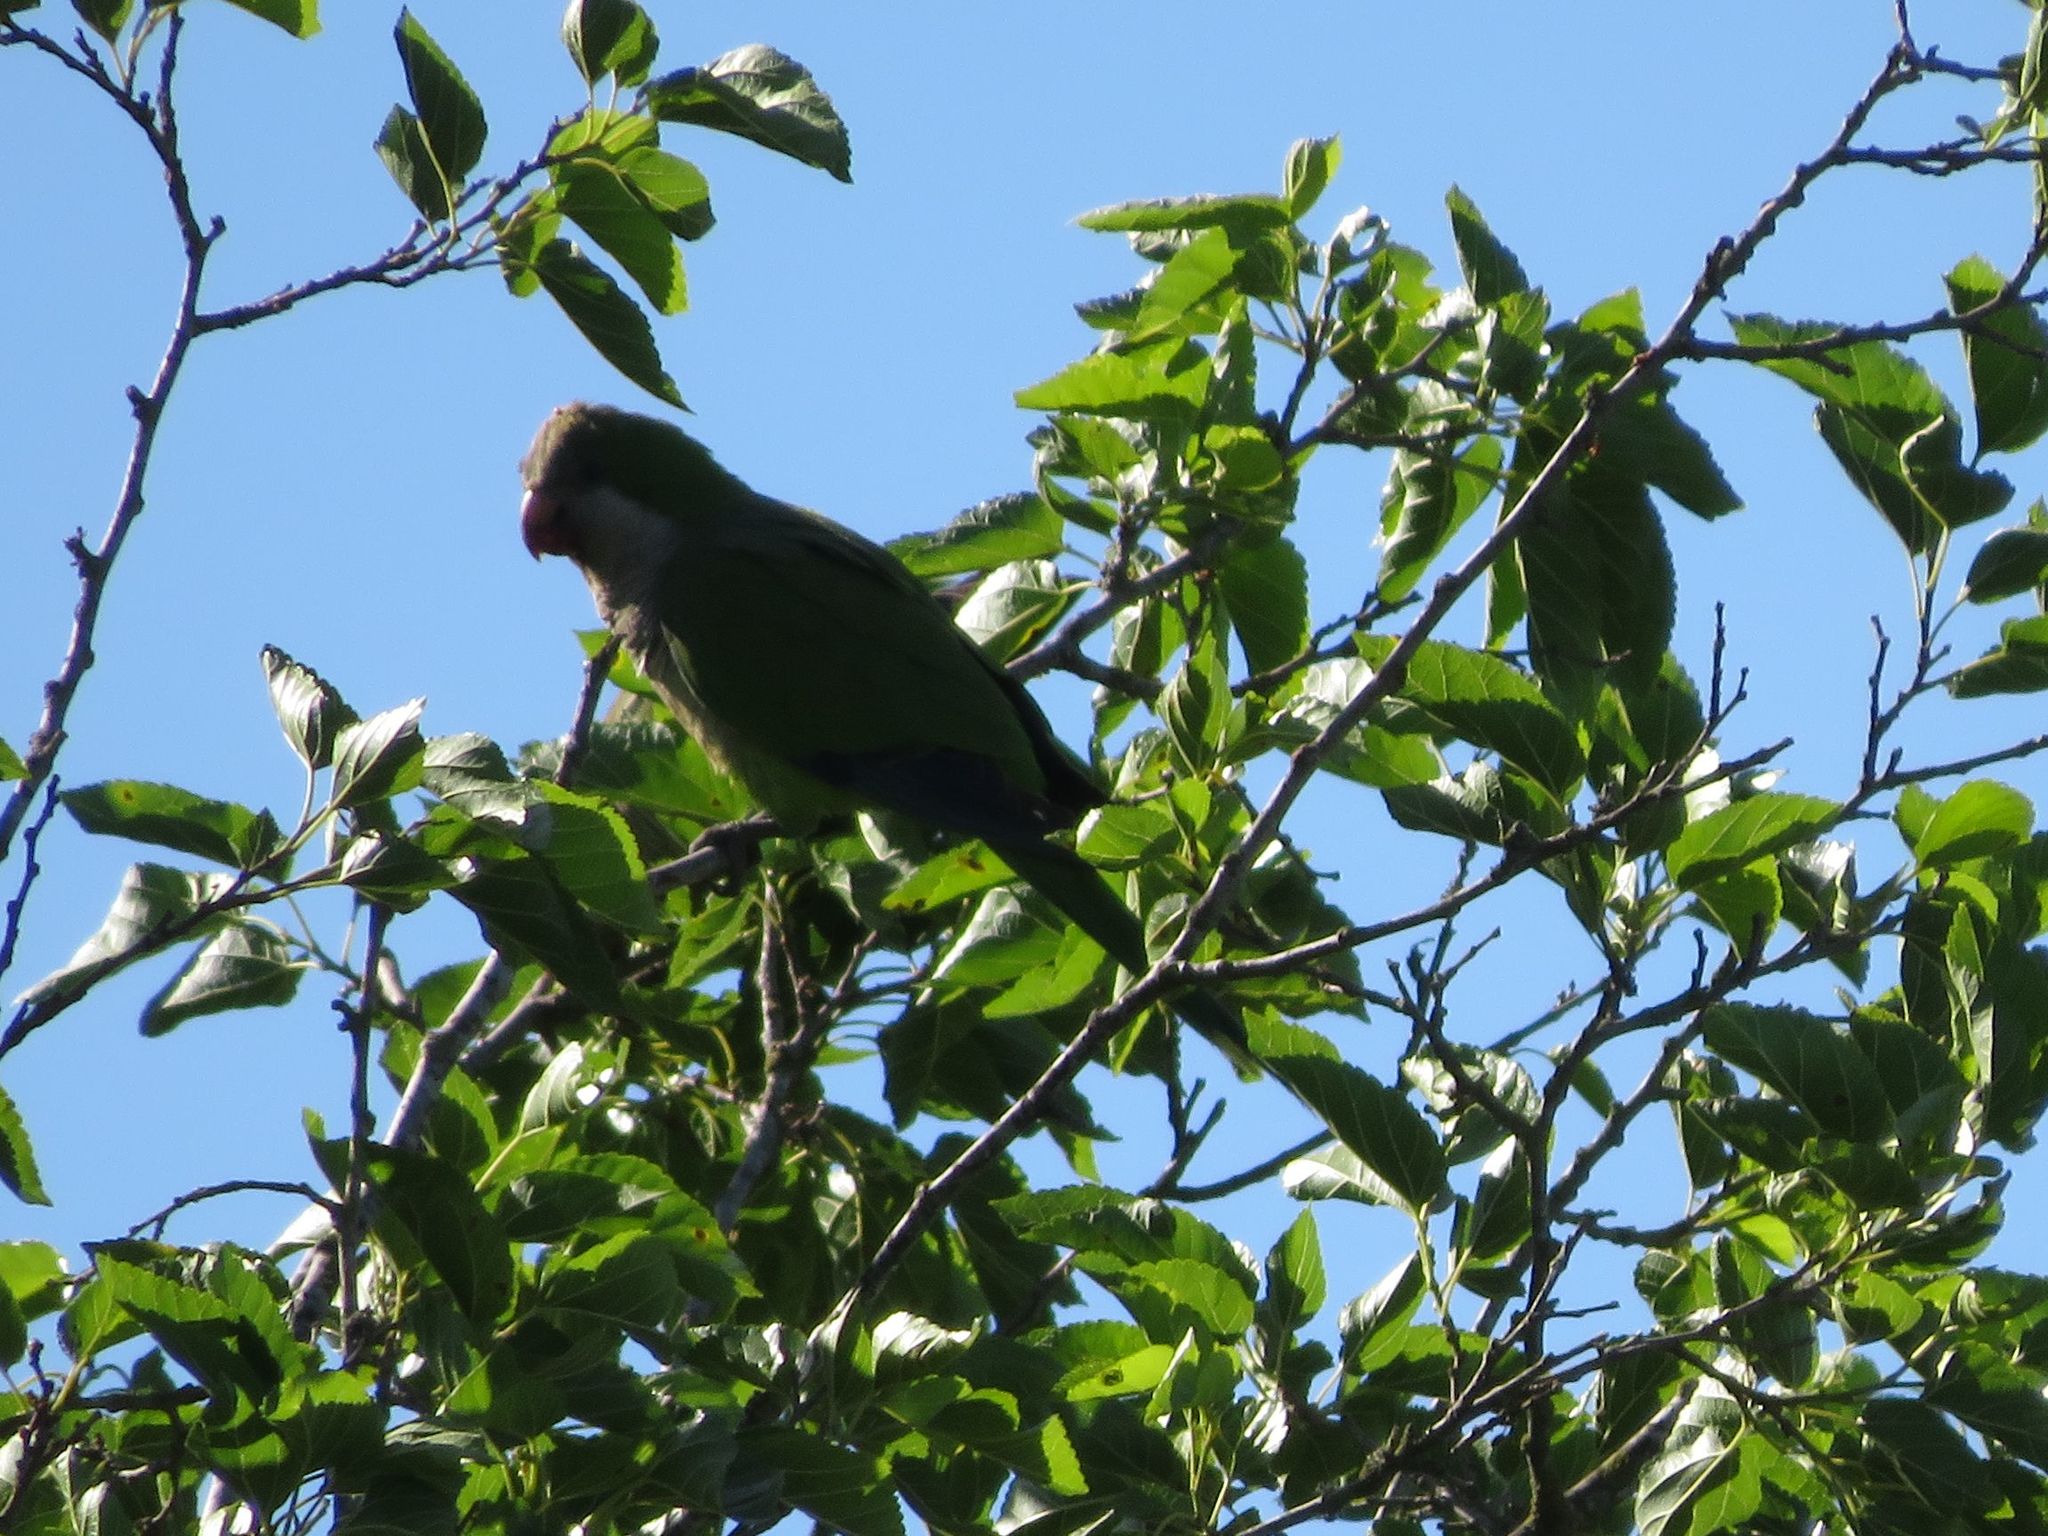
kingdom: Animalia
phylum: Chordata
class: Aves
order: Psittaciformes
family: Psittacidae
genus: Myiopsitta
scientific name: Myiopsitta monachus
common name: Monk parakeet
